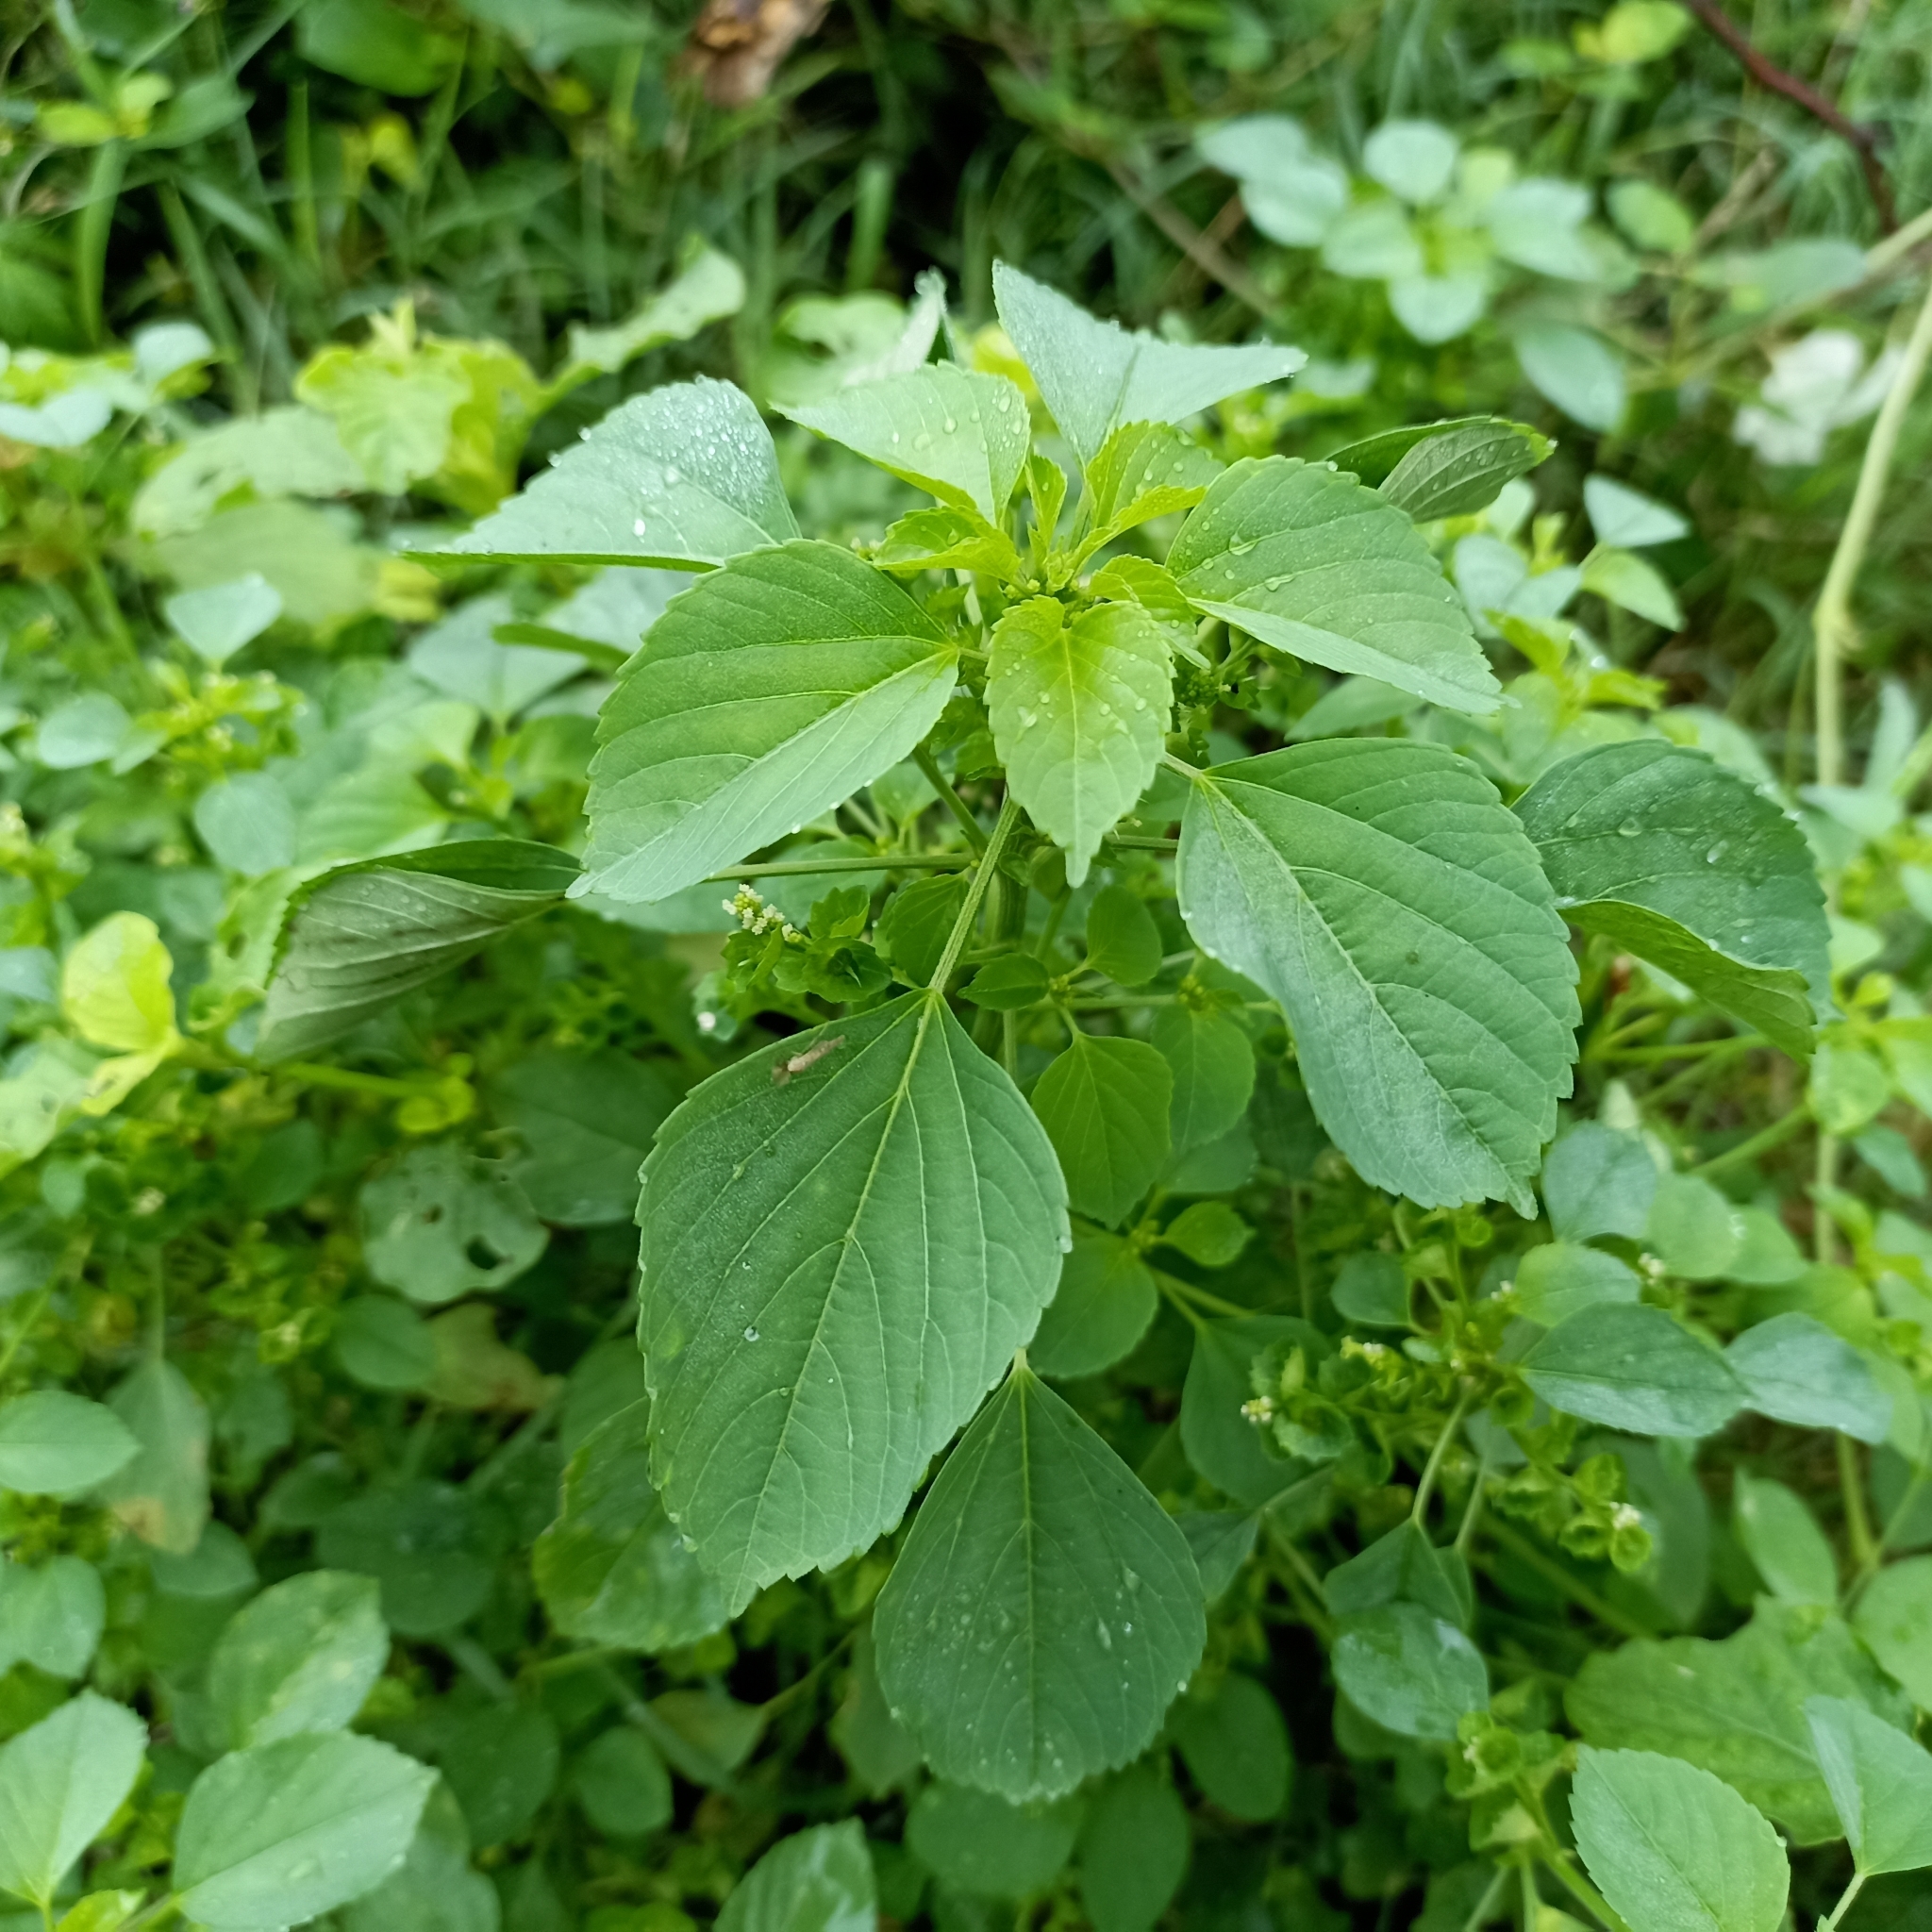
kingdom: Plantae
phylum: Tracheophyta
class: Magnoliopsida
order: Malpighiales
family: Euphorbiaceae
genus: Acalypha
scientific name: Acalypha indica
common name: Indian acalypha
